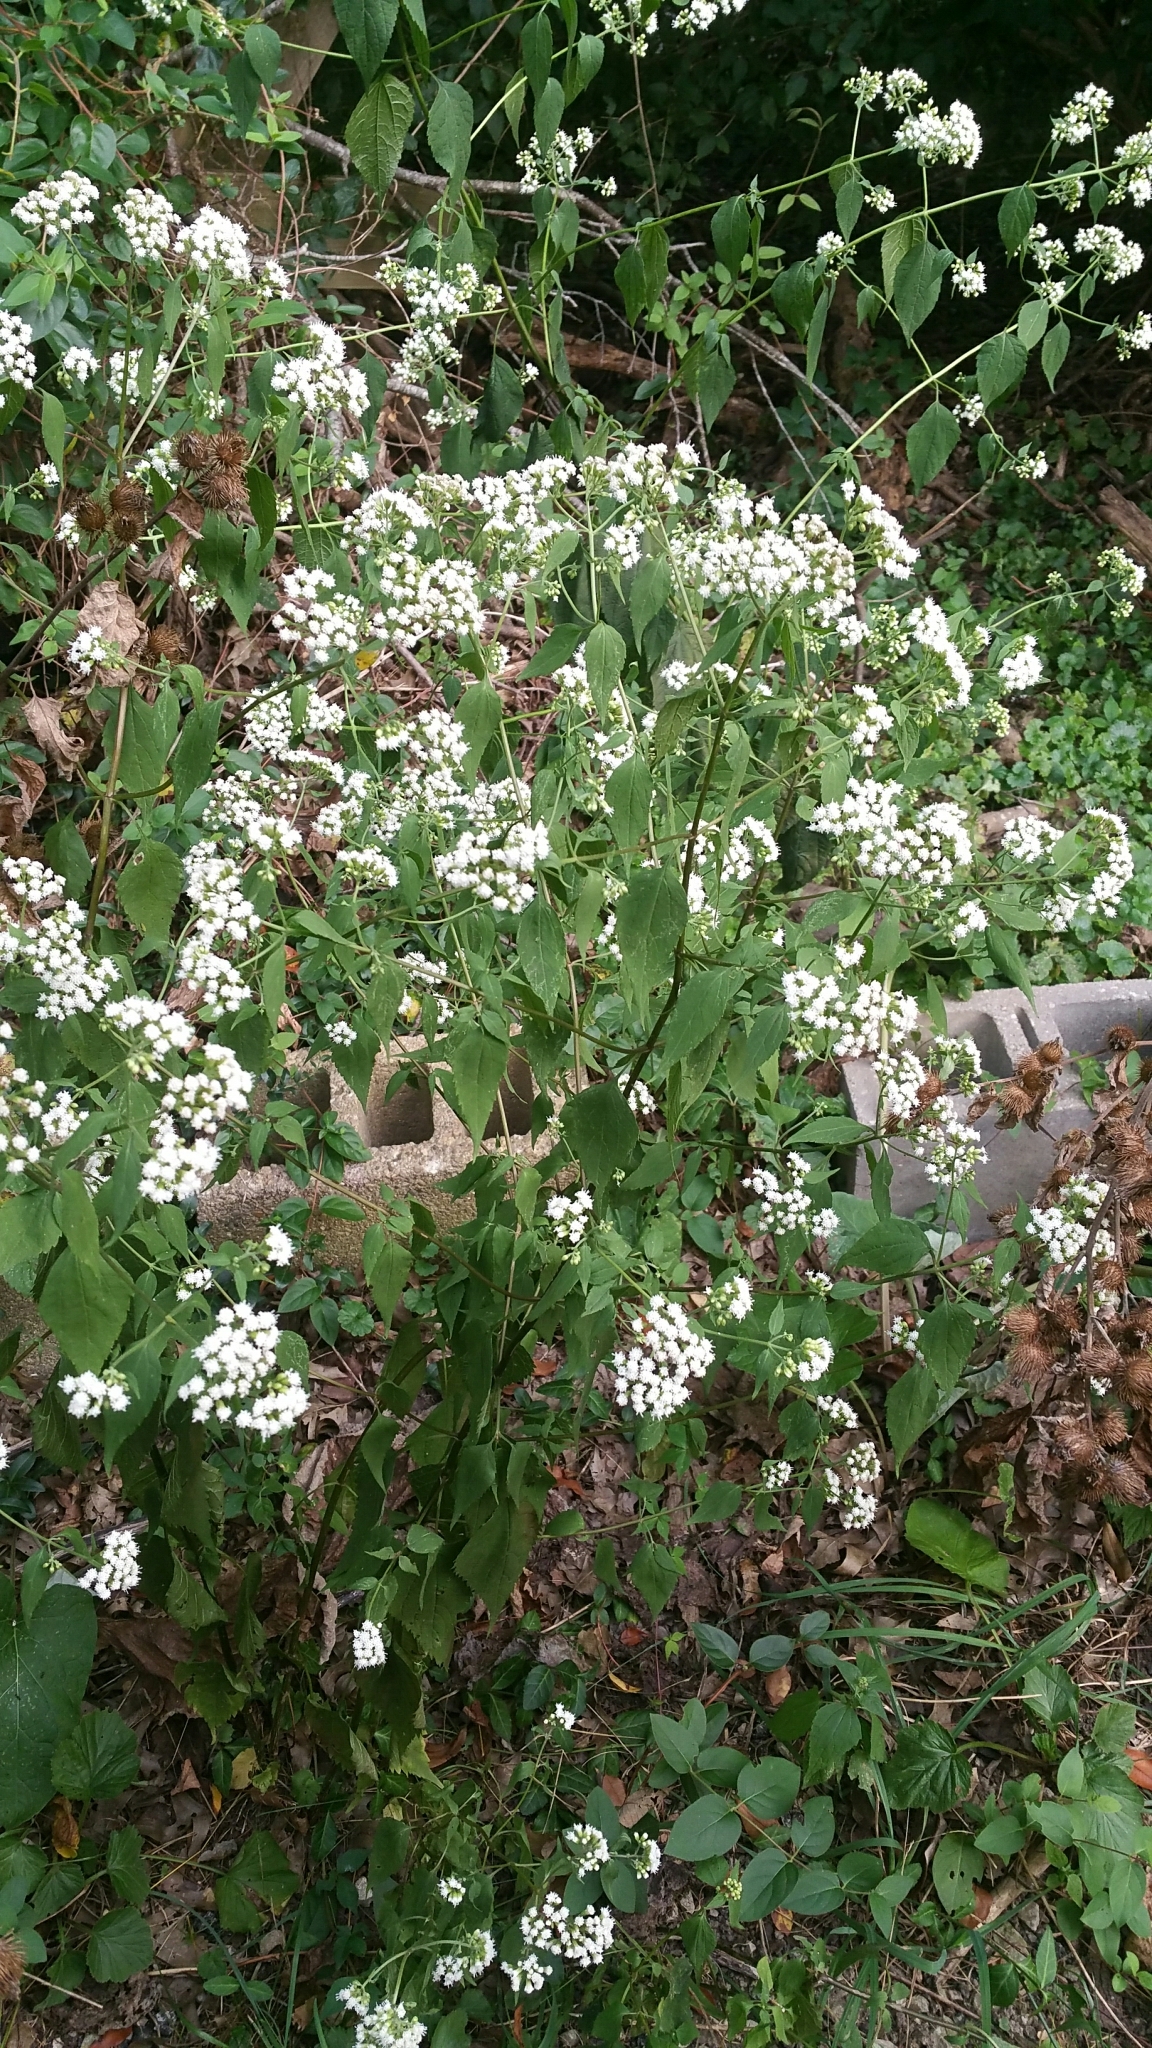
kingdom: Plantae
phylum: Tracheophyta
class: Magnoliopsida
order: Asterales
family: Asteraceae
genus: Ageratina
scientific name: Ageratina altissima
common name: White snakeroot
